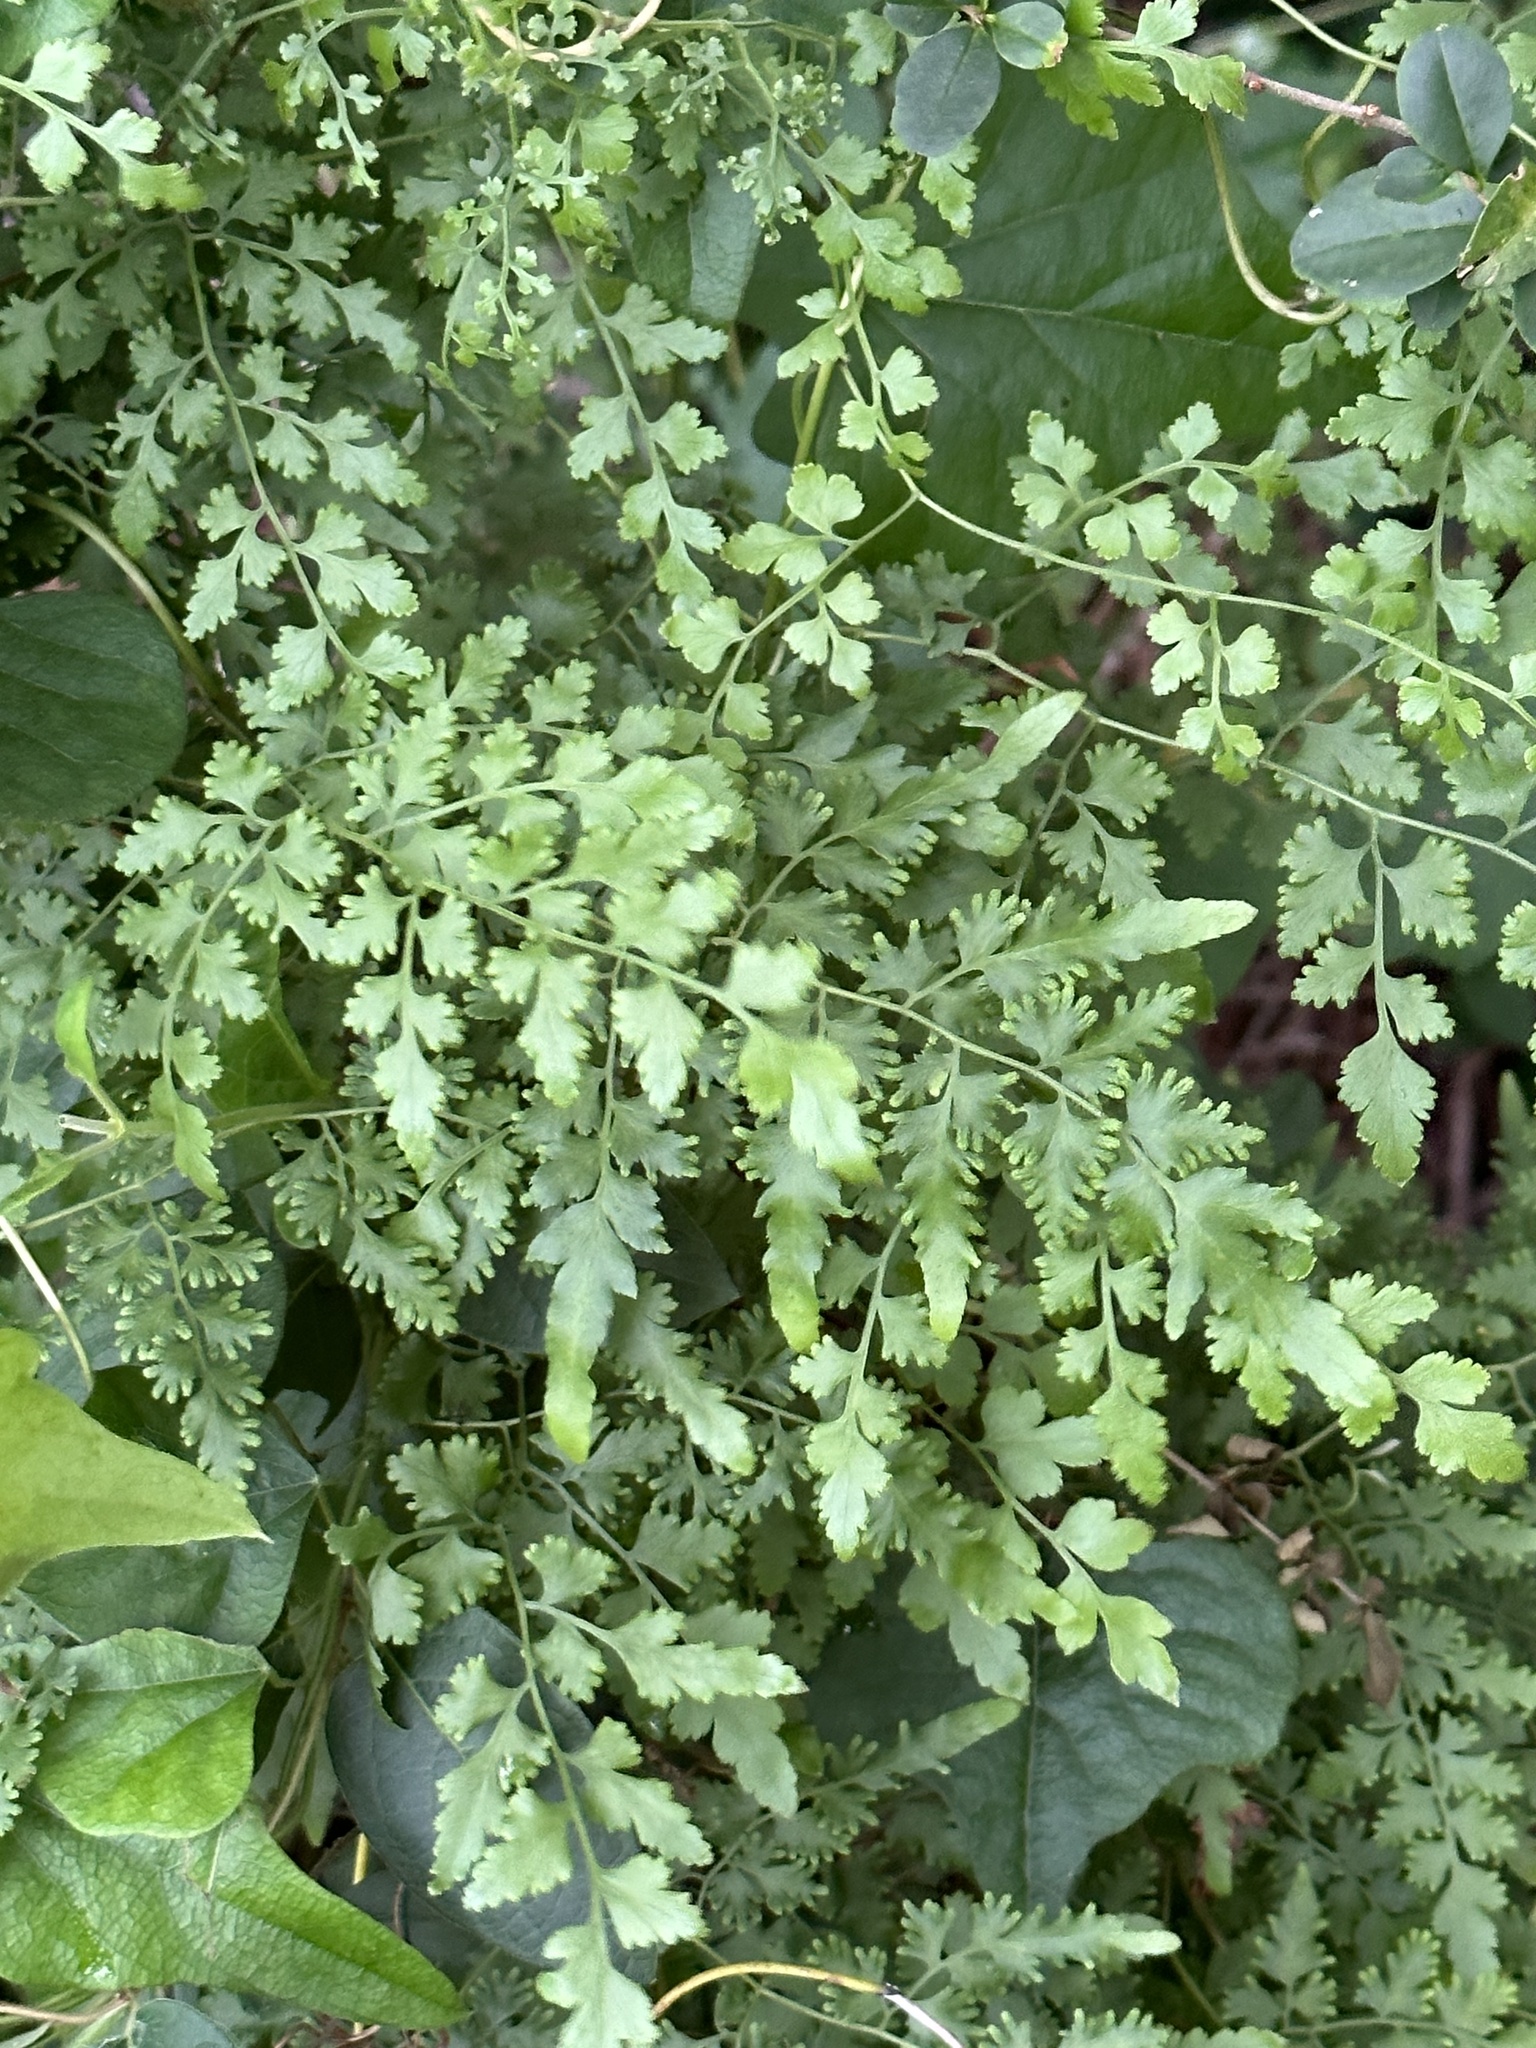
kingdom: Plantae
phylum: Tracheophyta
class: Polypodiopsida
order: Schizaeales
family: Lygodiaceae
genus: Lygodium
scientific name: Lygodium japonicum
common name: Japanese climbing fern
